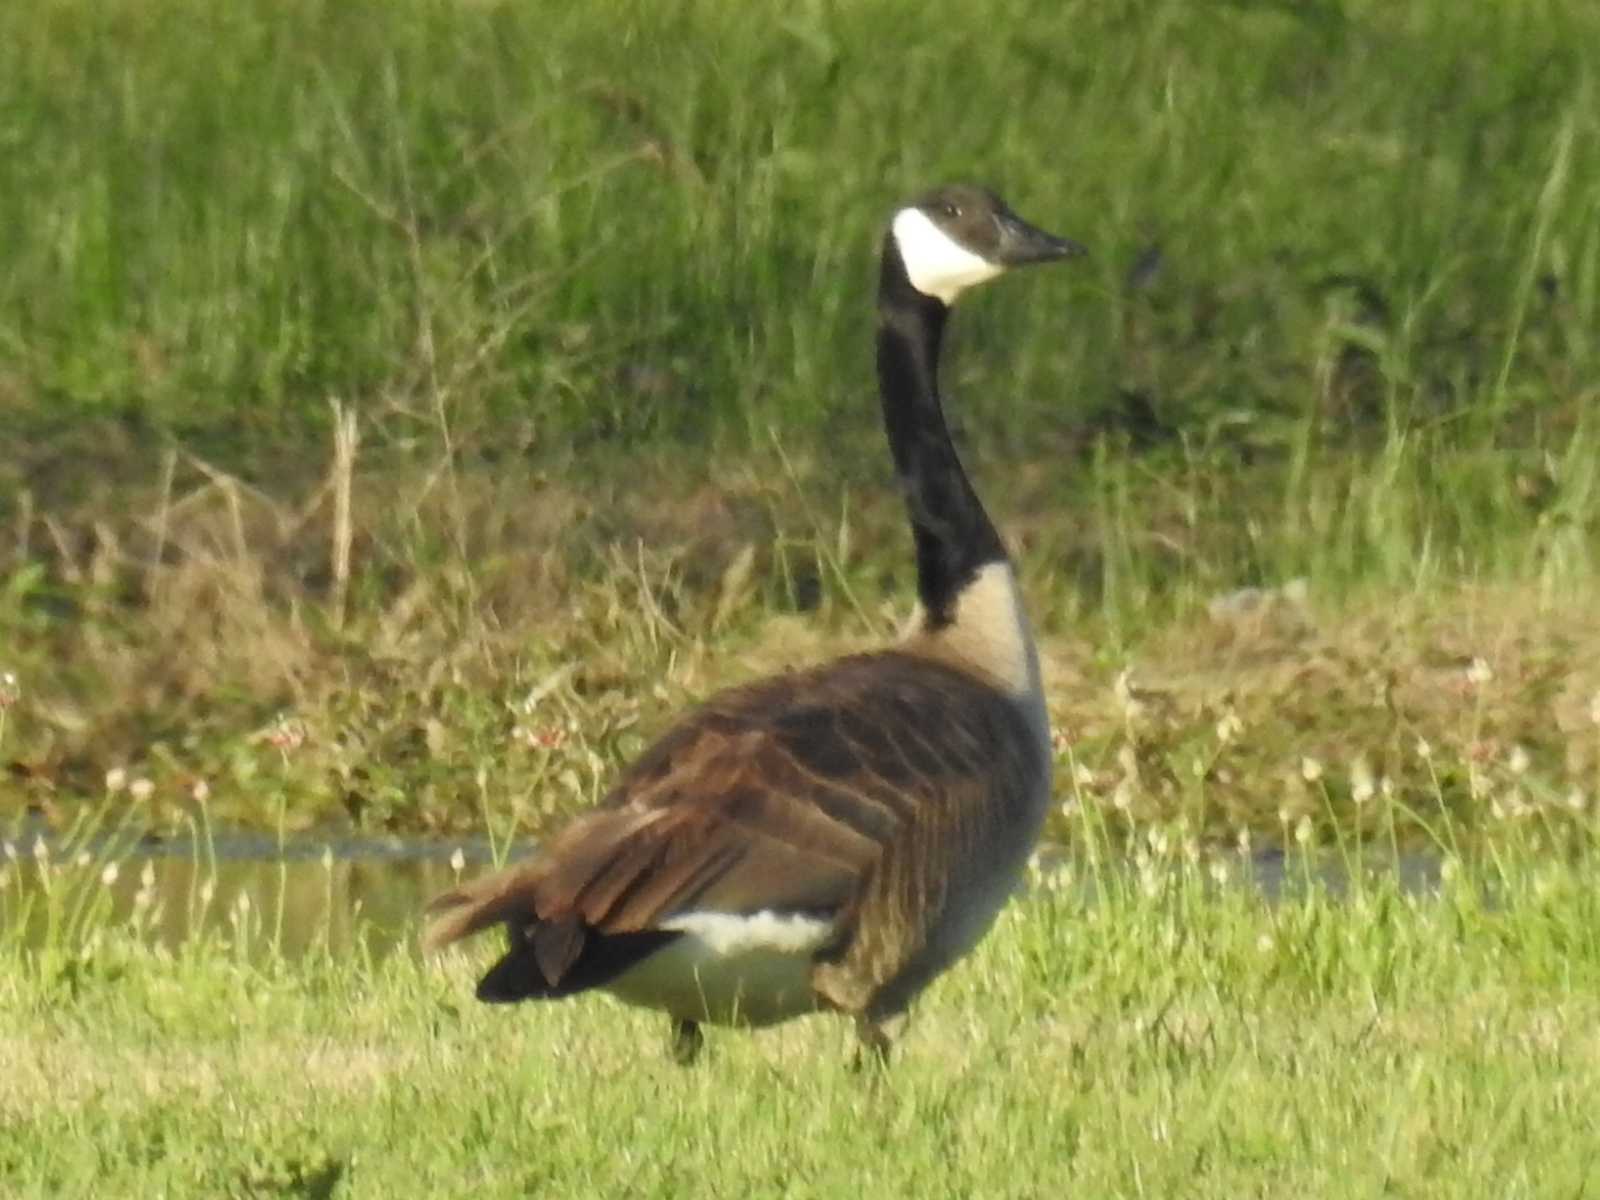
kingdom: Animalia
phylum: Chordata
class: Aves
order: Anseriformes
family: Anatidae
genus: Branta
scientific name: Branta canadensis
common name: Canada goose
